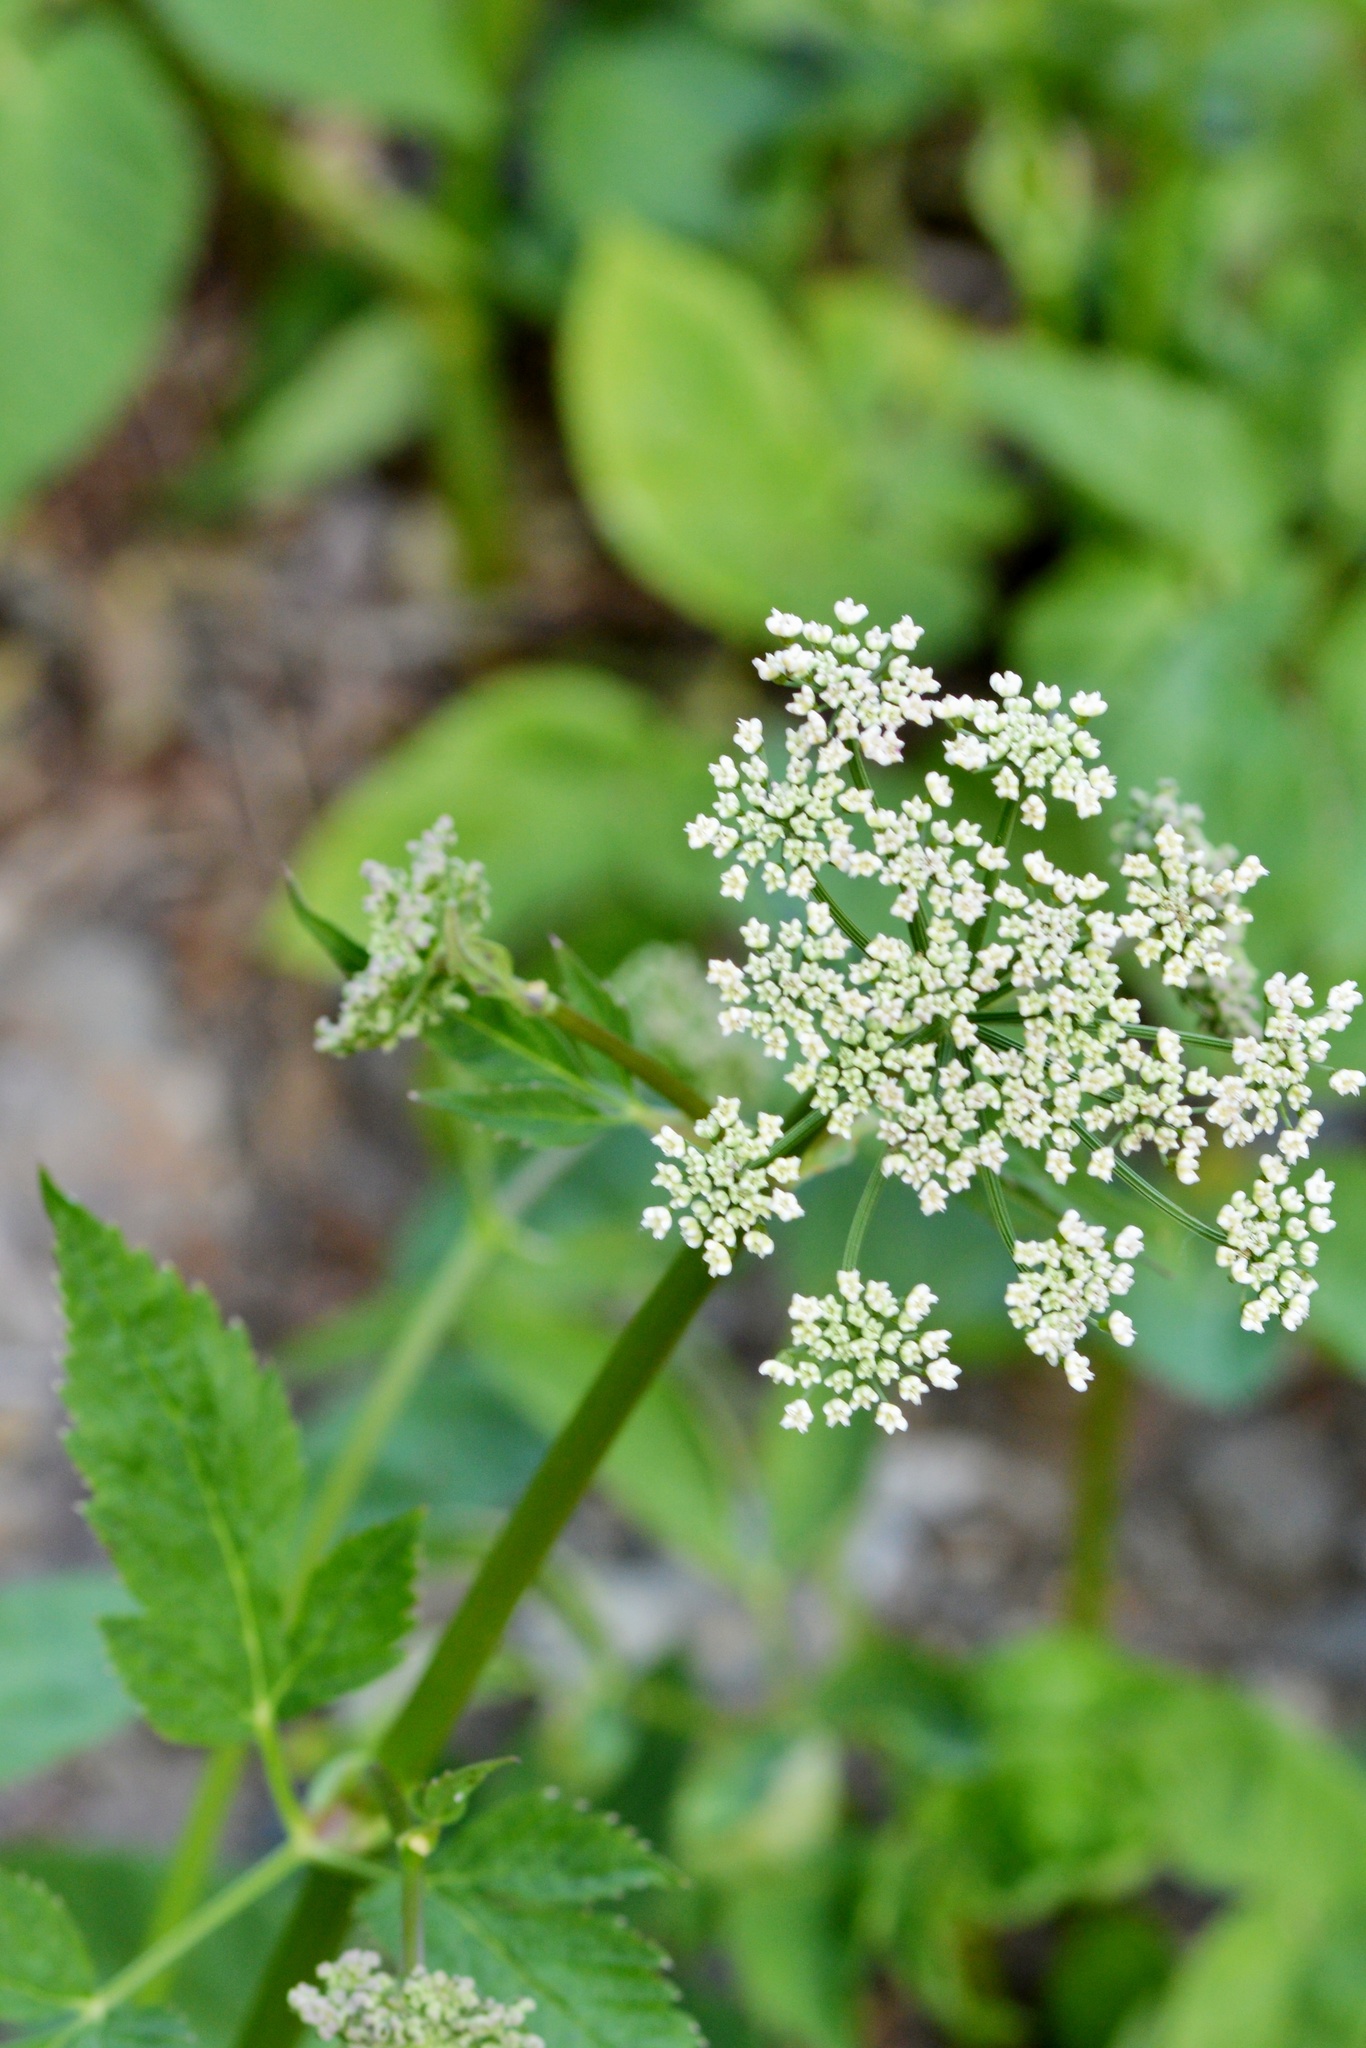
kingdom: Plantae
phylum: Tracheophyta
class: Magnoliopsida
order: Apiales
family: Apiaceae
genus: Aegopodium
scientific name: Aegopodium podagraria
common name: Ground-elder
